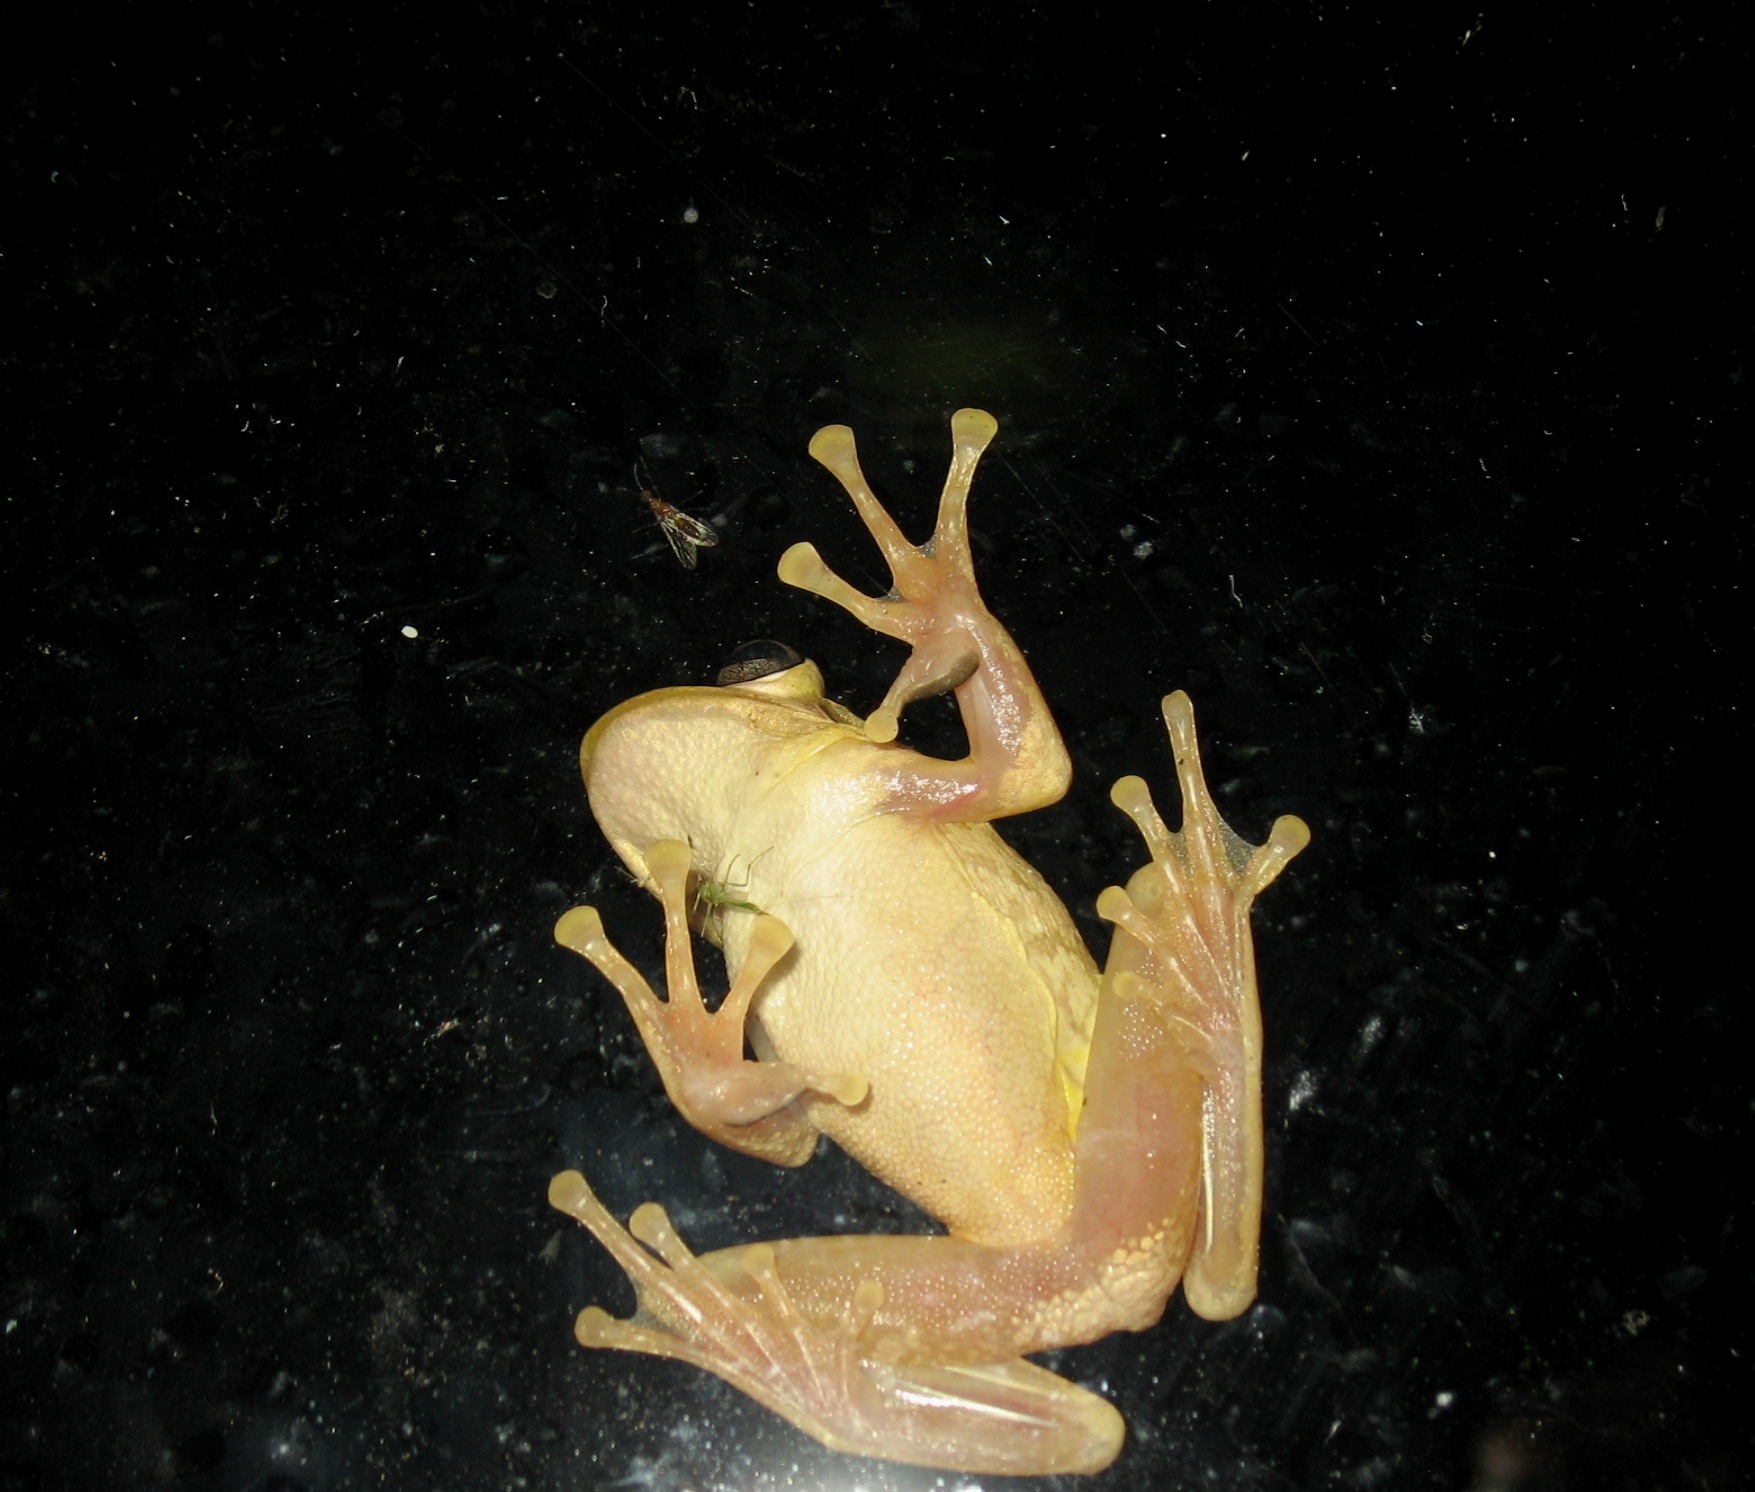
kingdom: Animalia
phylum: Chordata
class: Amphibia
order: Anura
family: Hylidae
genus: Osteopilus
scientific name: Osteopilus septentrionalis
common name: Cuban treefrog
